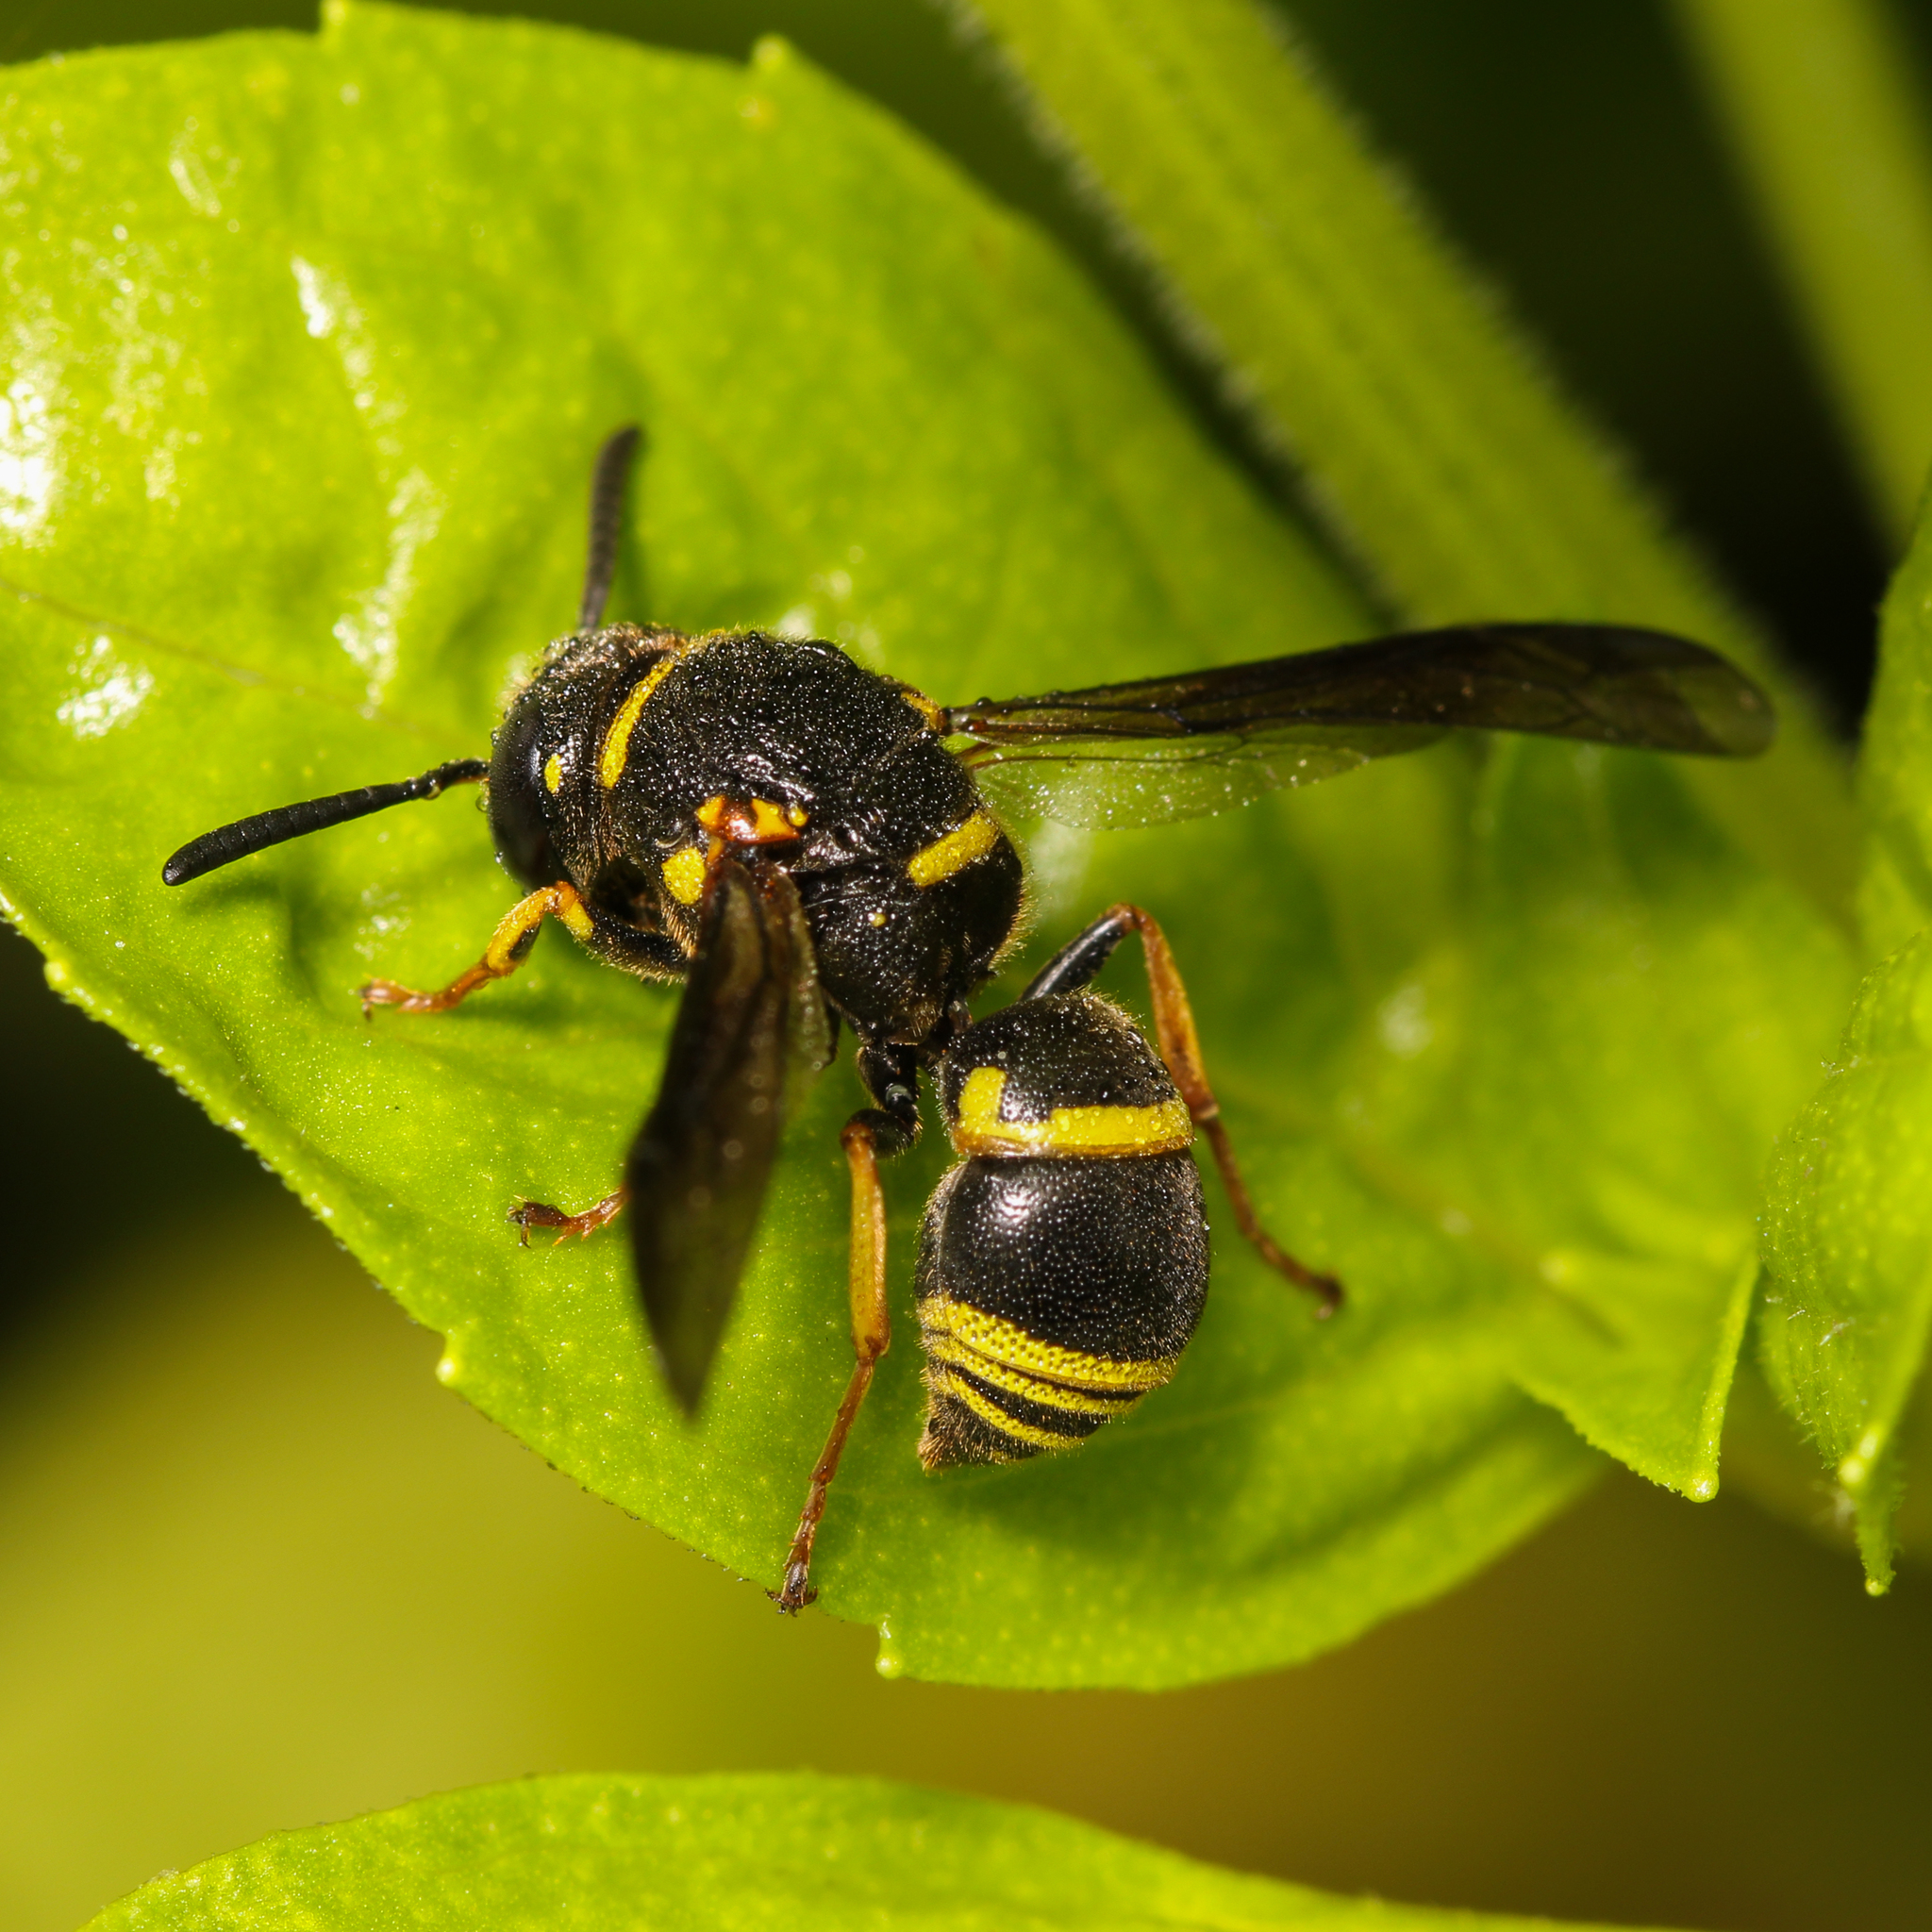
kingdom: Animalia
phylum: Arthropoda
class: Insecta
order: Hymenoptera
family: Eumenidae
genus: Euodynerus
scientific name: Euodynerus foraminatus
